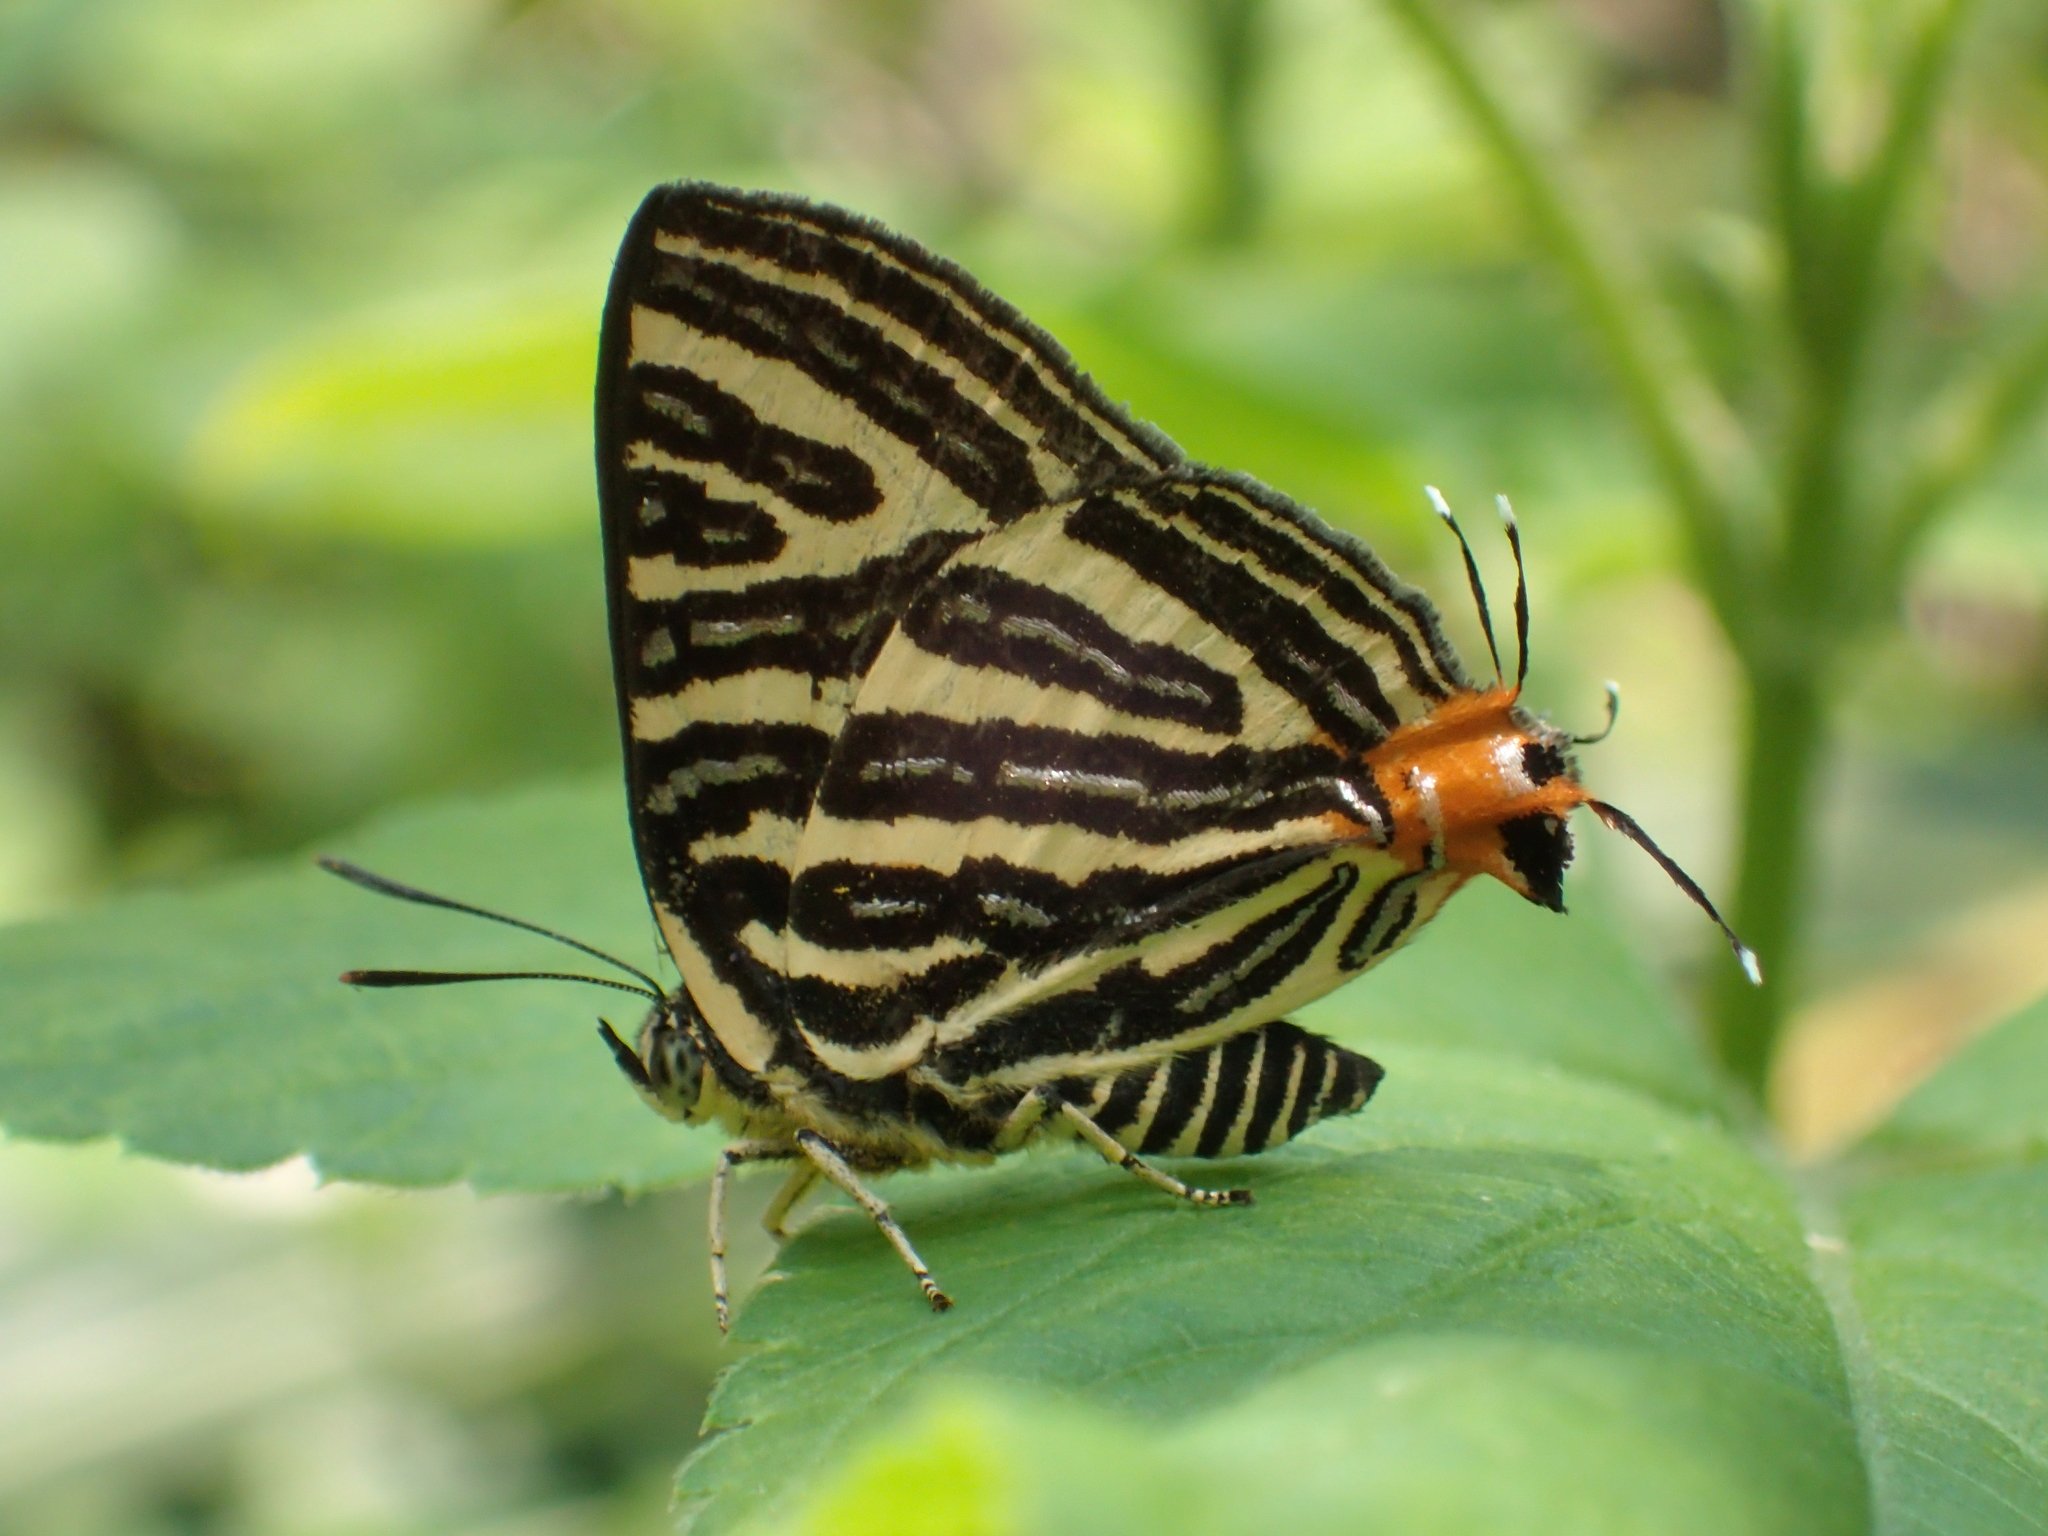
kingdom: Animalia
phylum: Arthropoda
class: Insecta
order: Lepidoptera
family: Lycaenidae
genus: Cigaritis
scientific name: Cigaritis lohita
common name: Long-banded silverline
